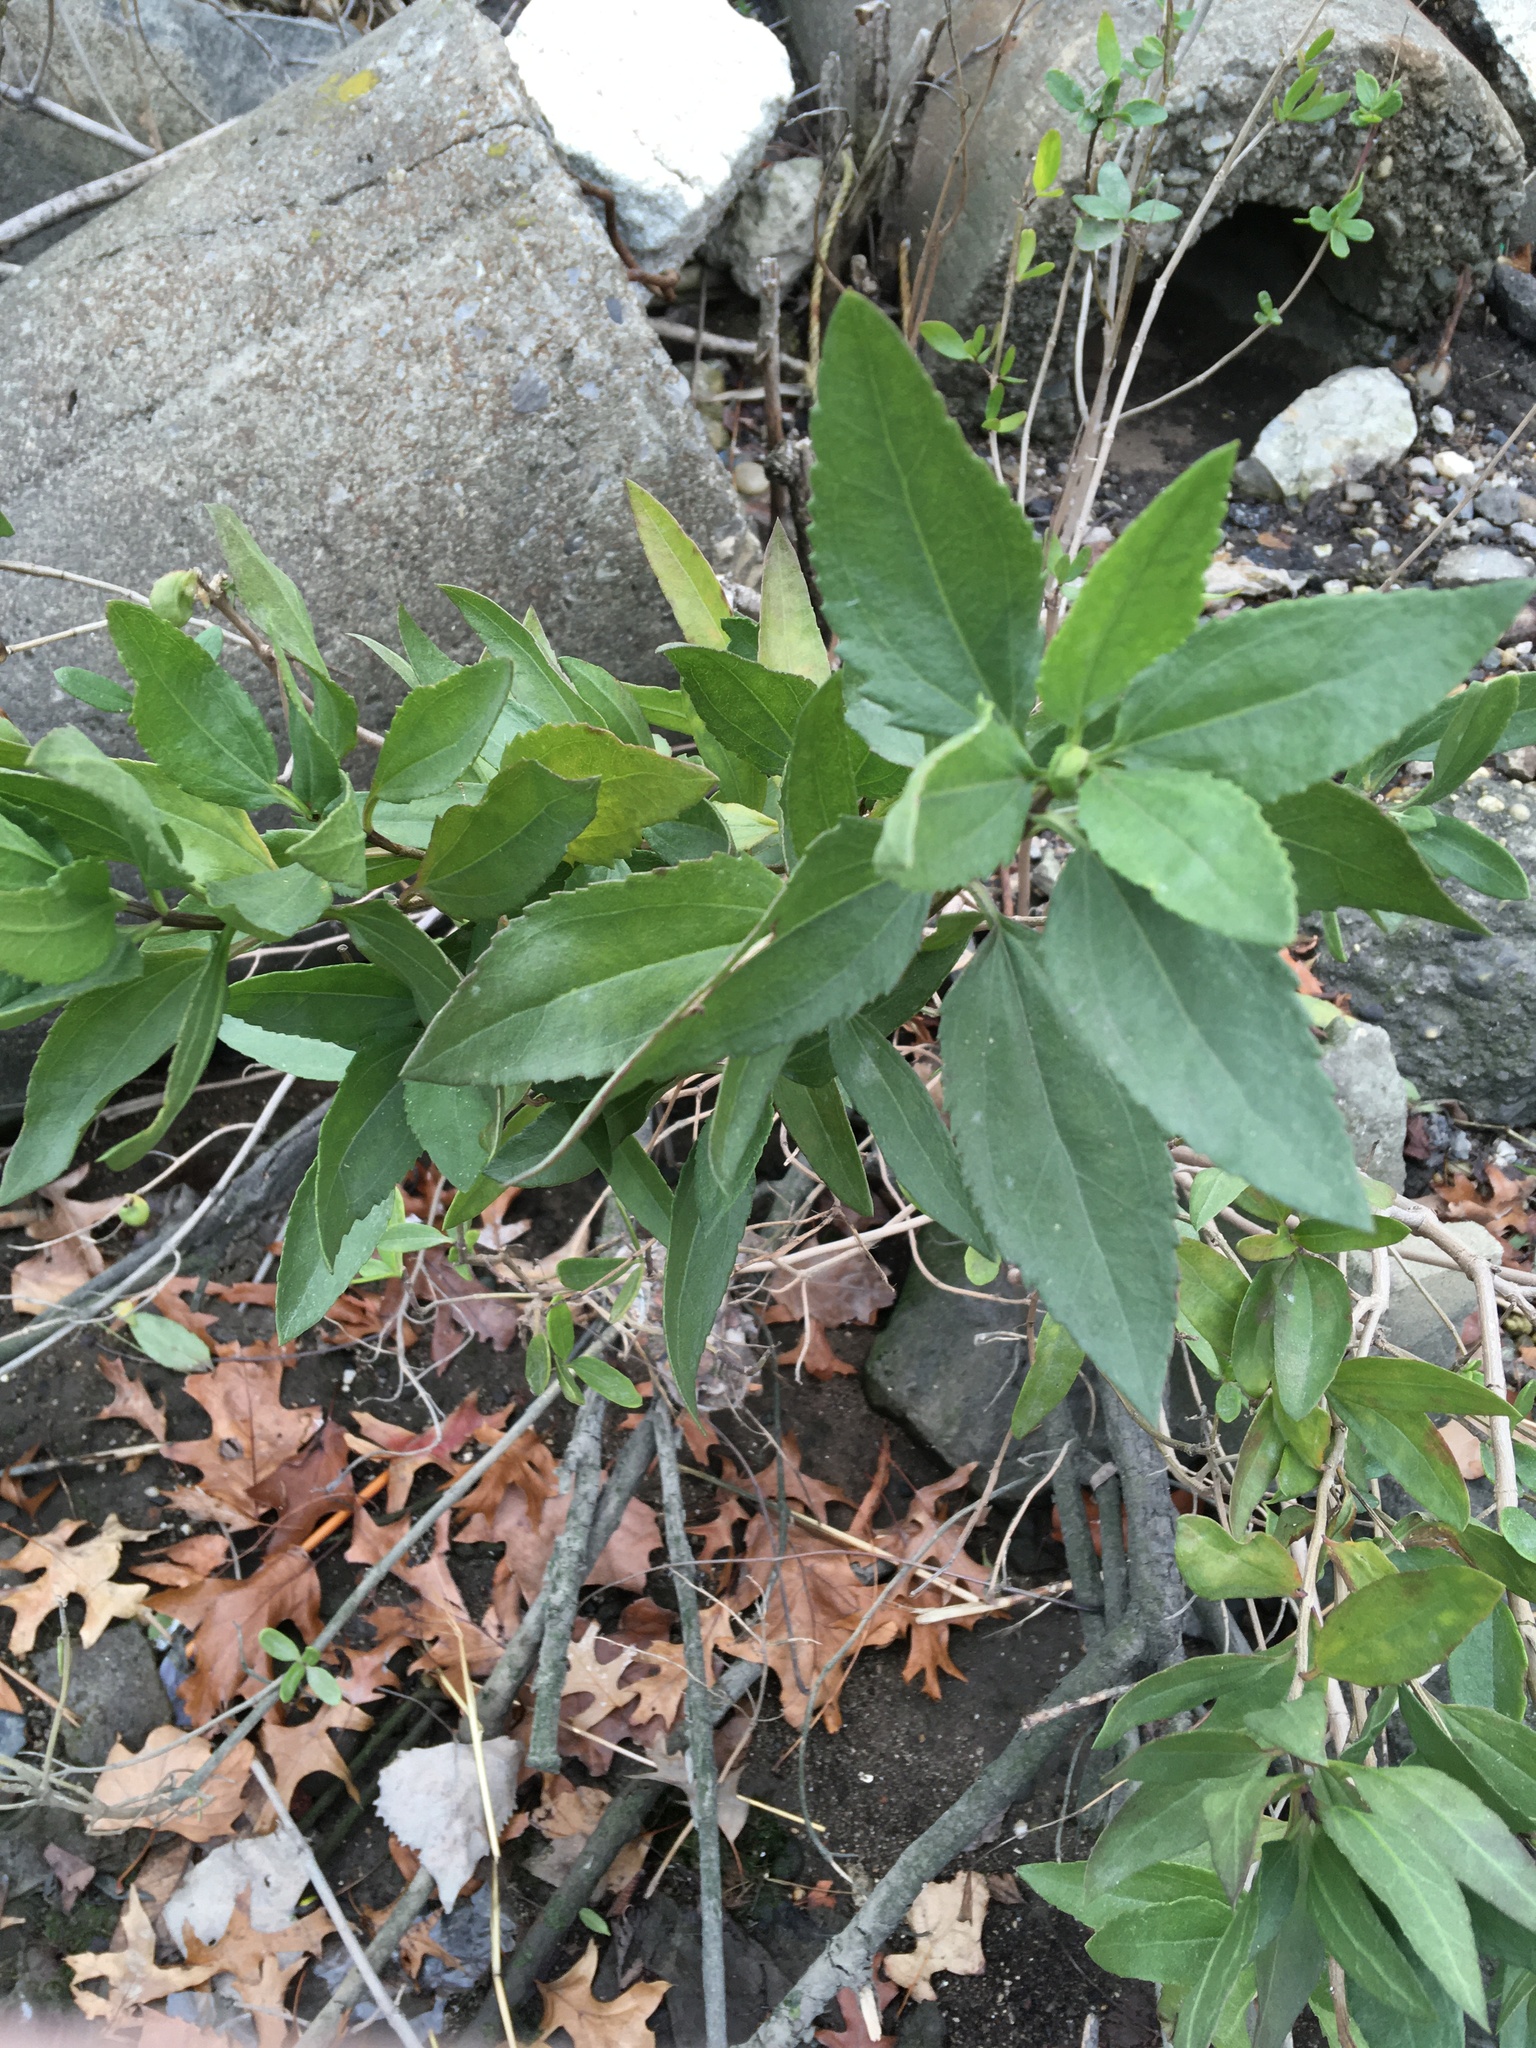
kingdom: Plantae
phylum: Tracheophyta
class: Magnoliopsida
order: Asterales
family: Asteraceae
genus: Iva
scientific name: Iva frutescens
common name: Big-leaved marsh-elder
